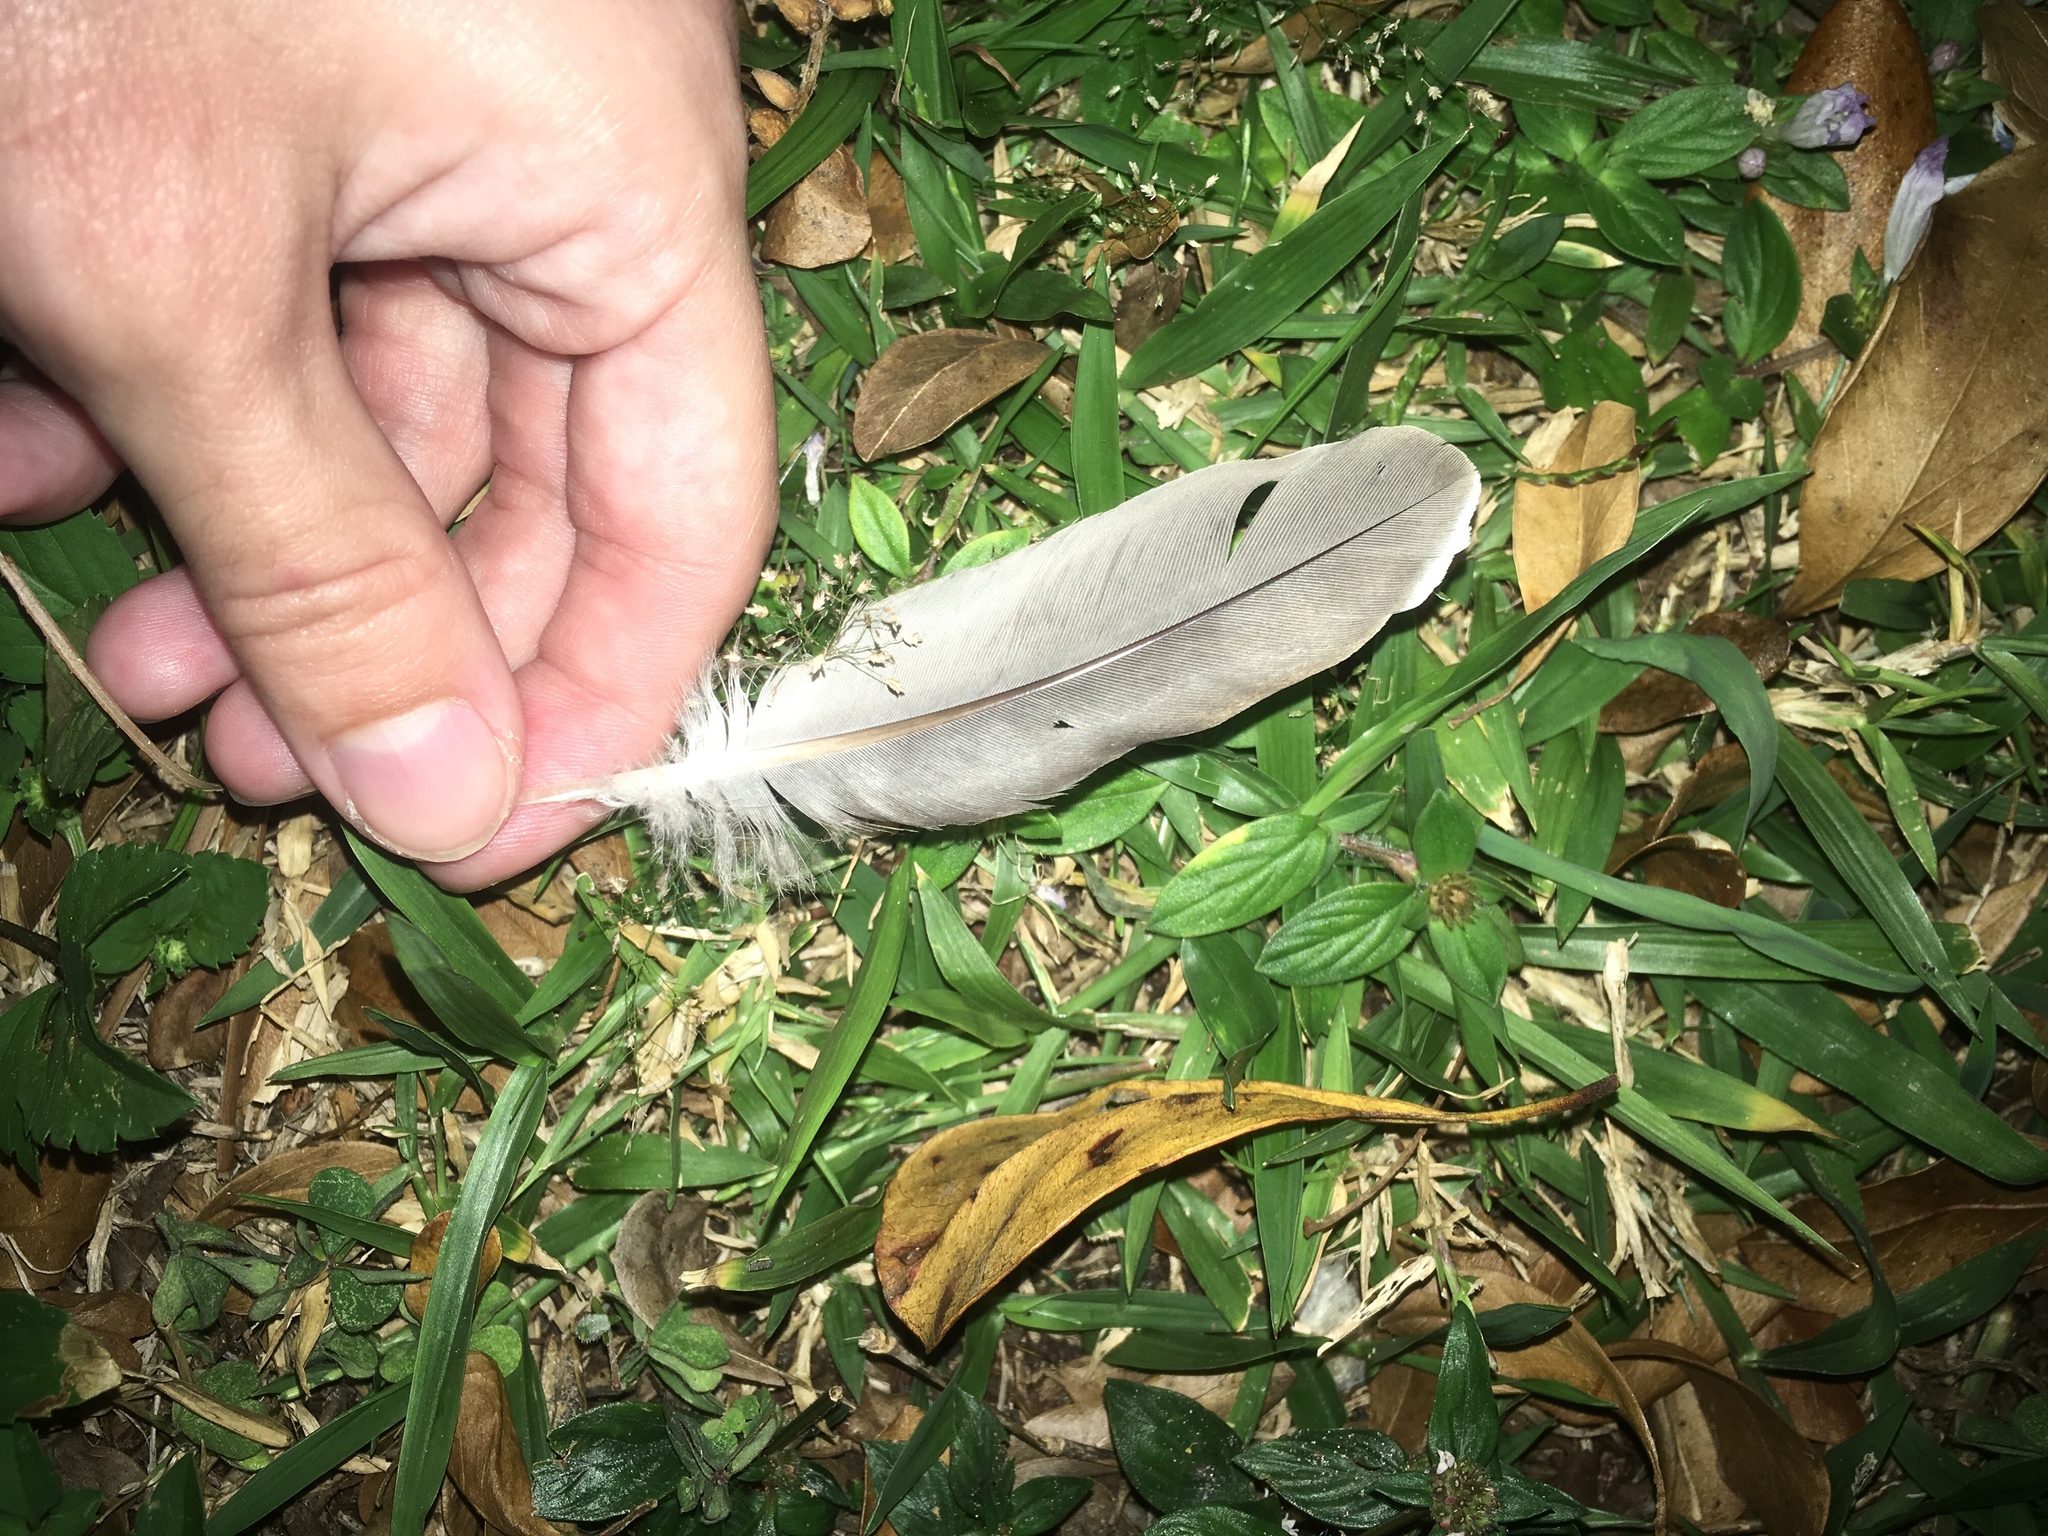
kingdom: Animalia
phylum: Chordata
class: Aves
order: Columbiformes
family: Columbidae
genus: Zenaida
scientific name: Zenaida asiatica
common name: White-winged dove
